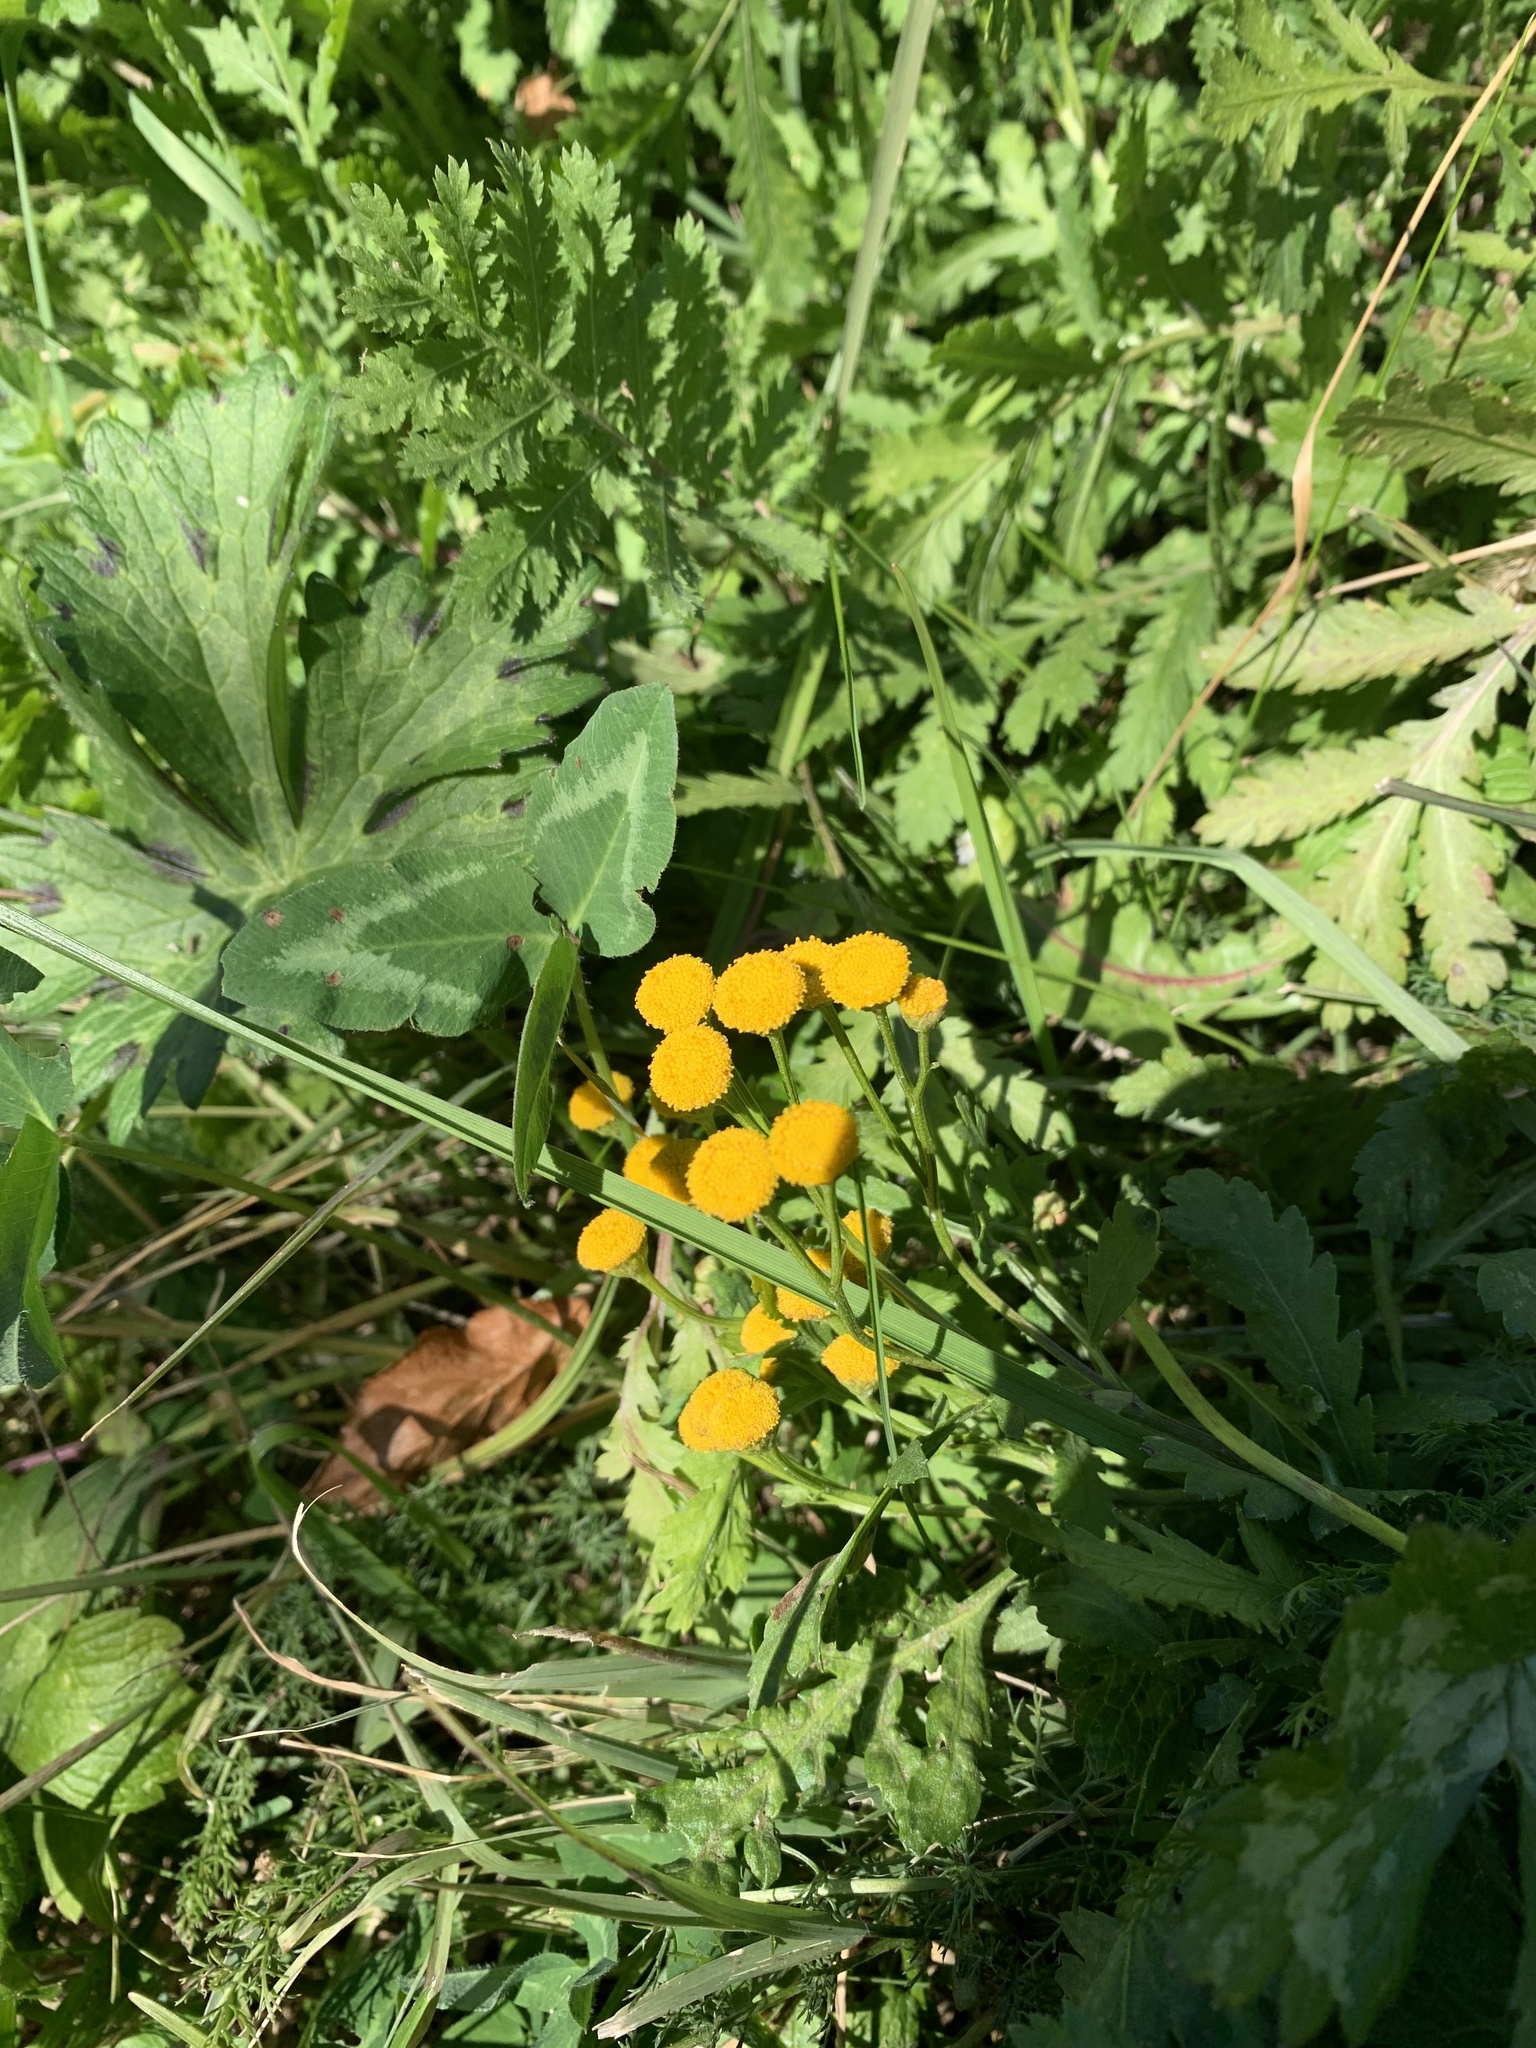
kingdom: Plantae
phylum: Tracheophyta
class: Magnoliopsida
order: Asterales
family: Asteraceae
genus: Tanacetum
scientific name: Tanacetum vulgare
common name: Common tansy
